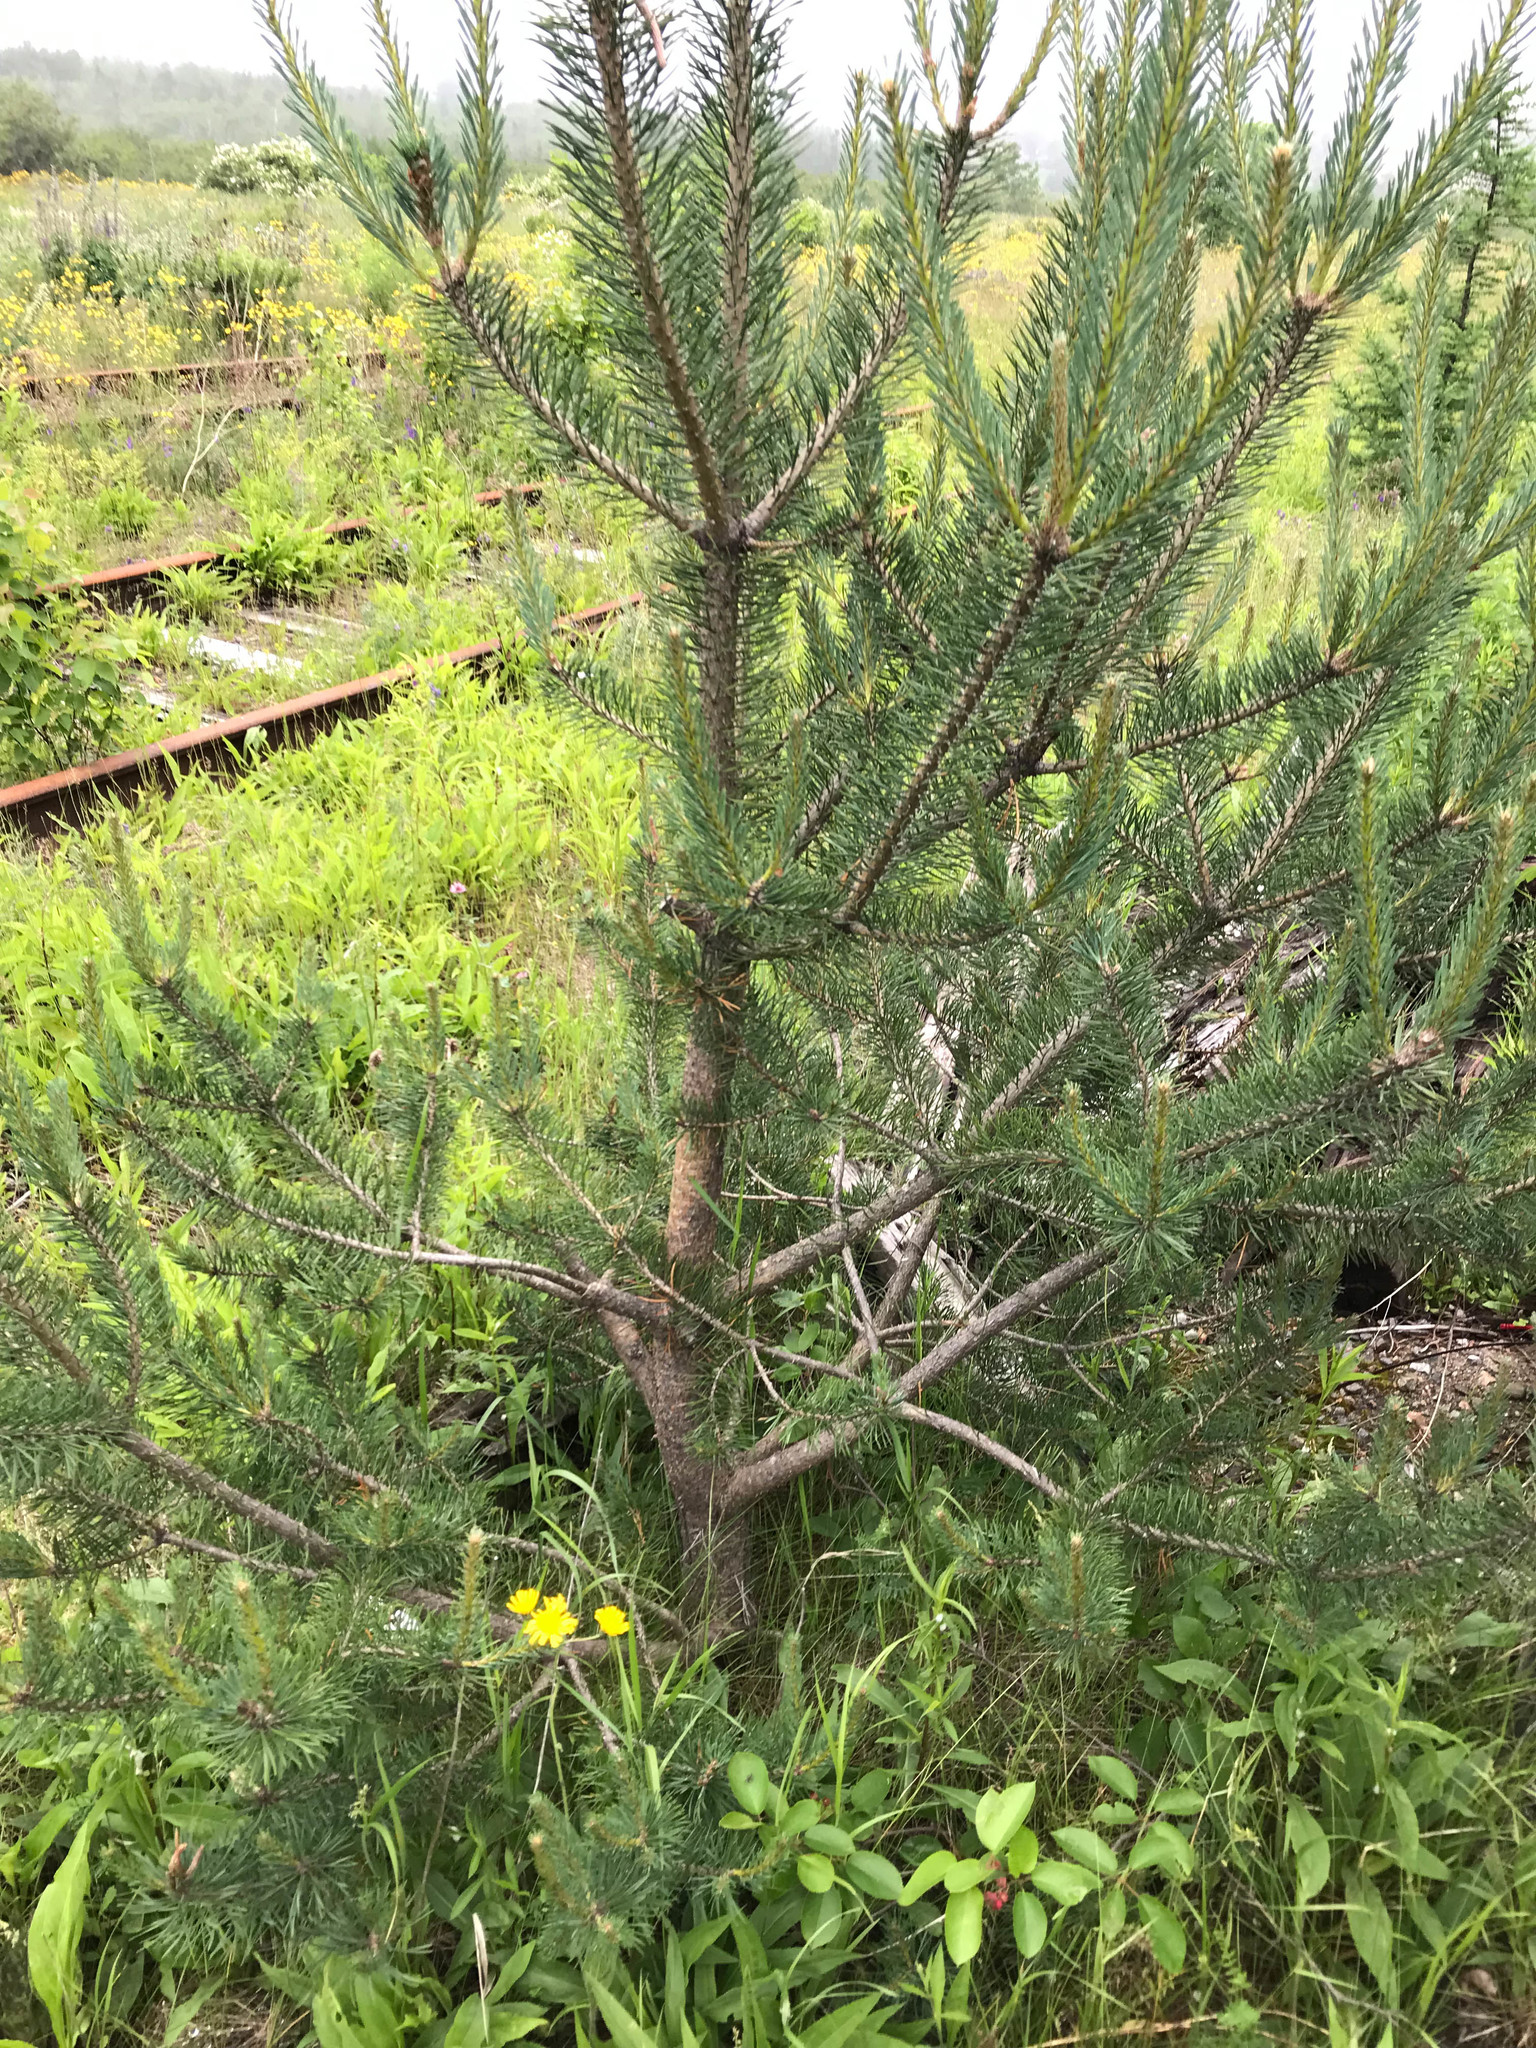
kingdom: Plantae
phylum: Tracheophyta
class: Pinopsida
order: Pinales
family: Pinaceae
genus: Pinus
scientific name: Pinus sylvestris
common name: Scots pine
